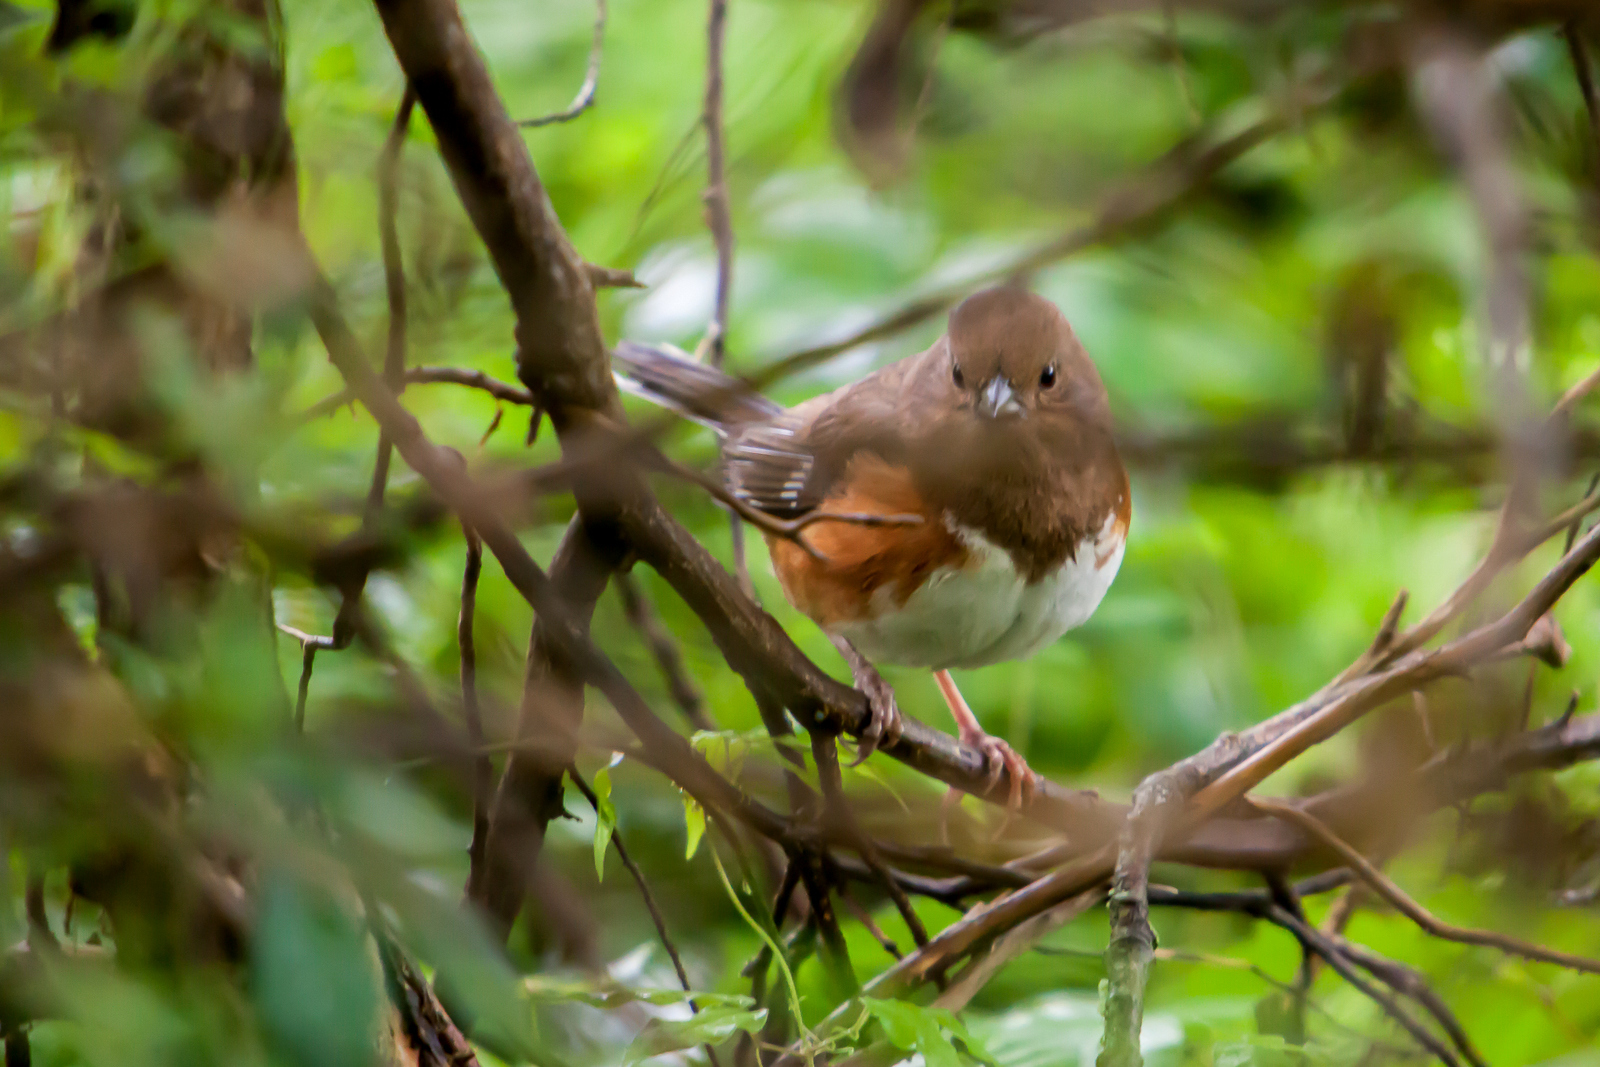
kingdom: Animalia
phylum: Chordata
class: Aves
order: Passeriformes
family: Passerellidae
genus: Pipilo
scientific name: Pipilo erythrophthalmus
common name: Eastern towhee
